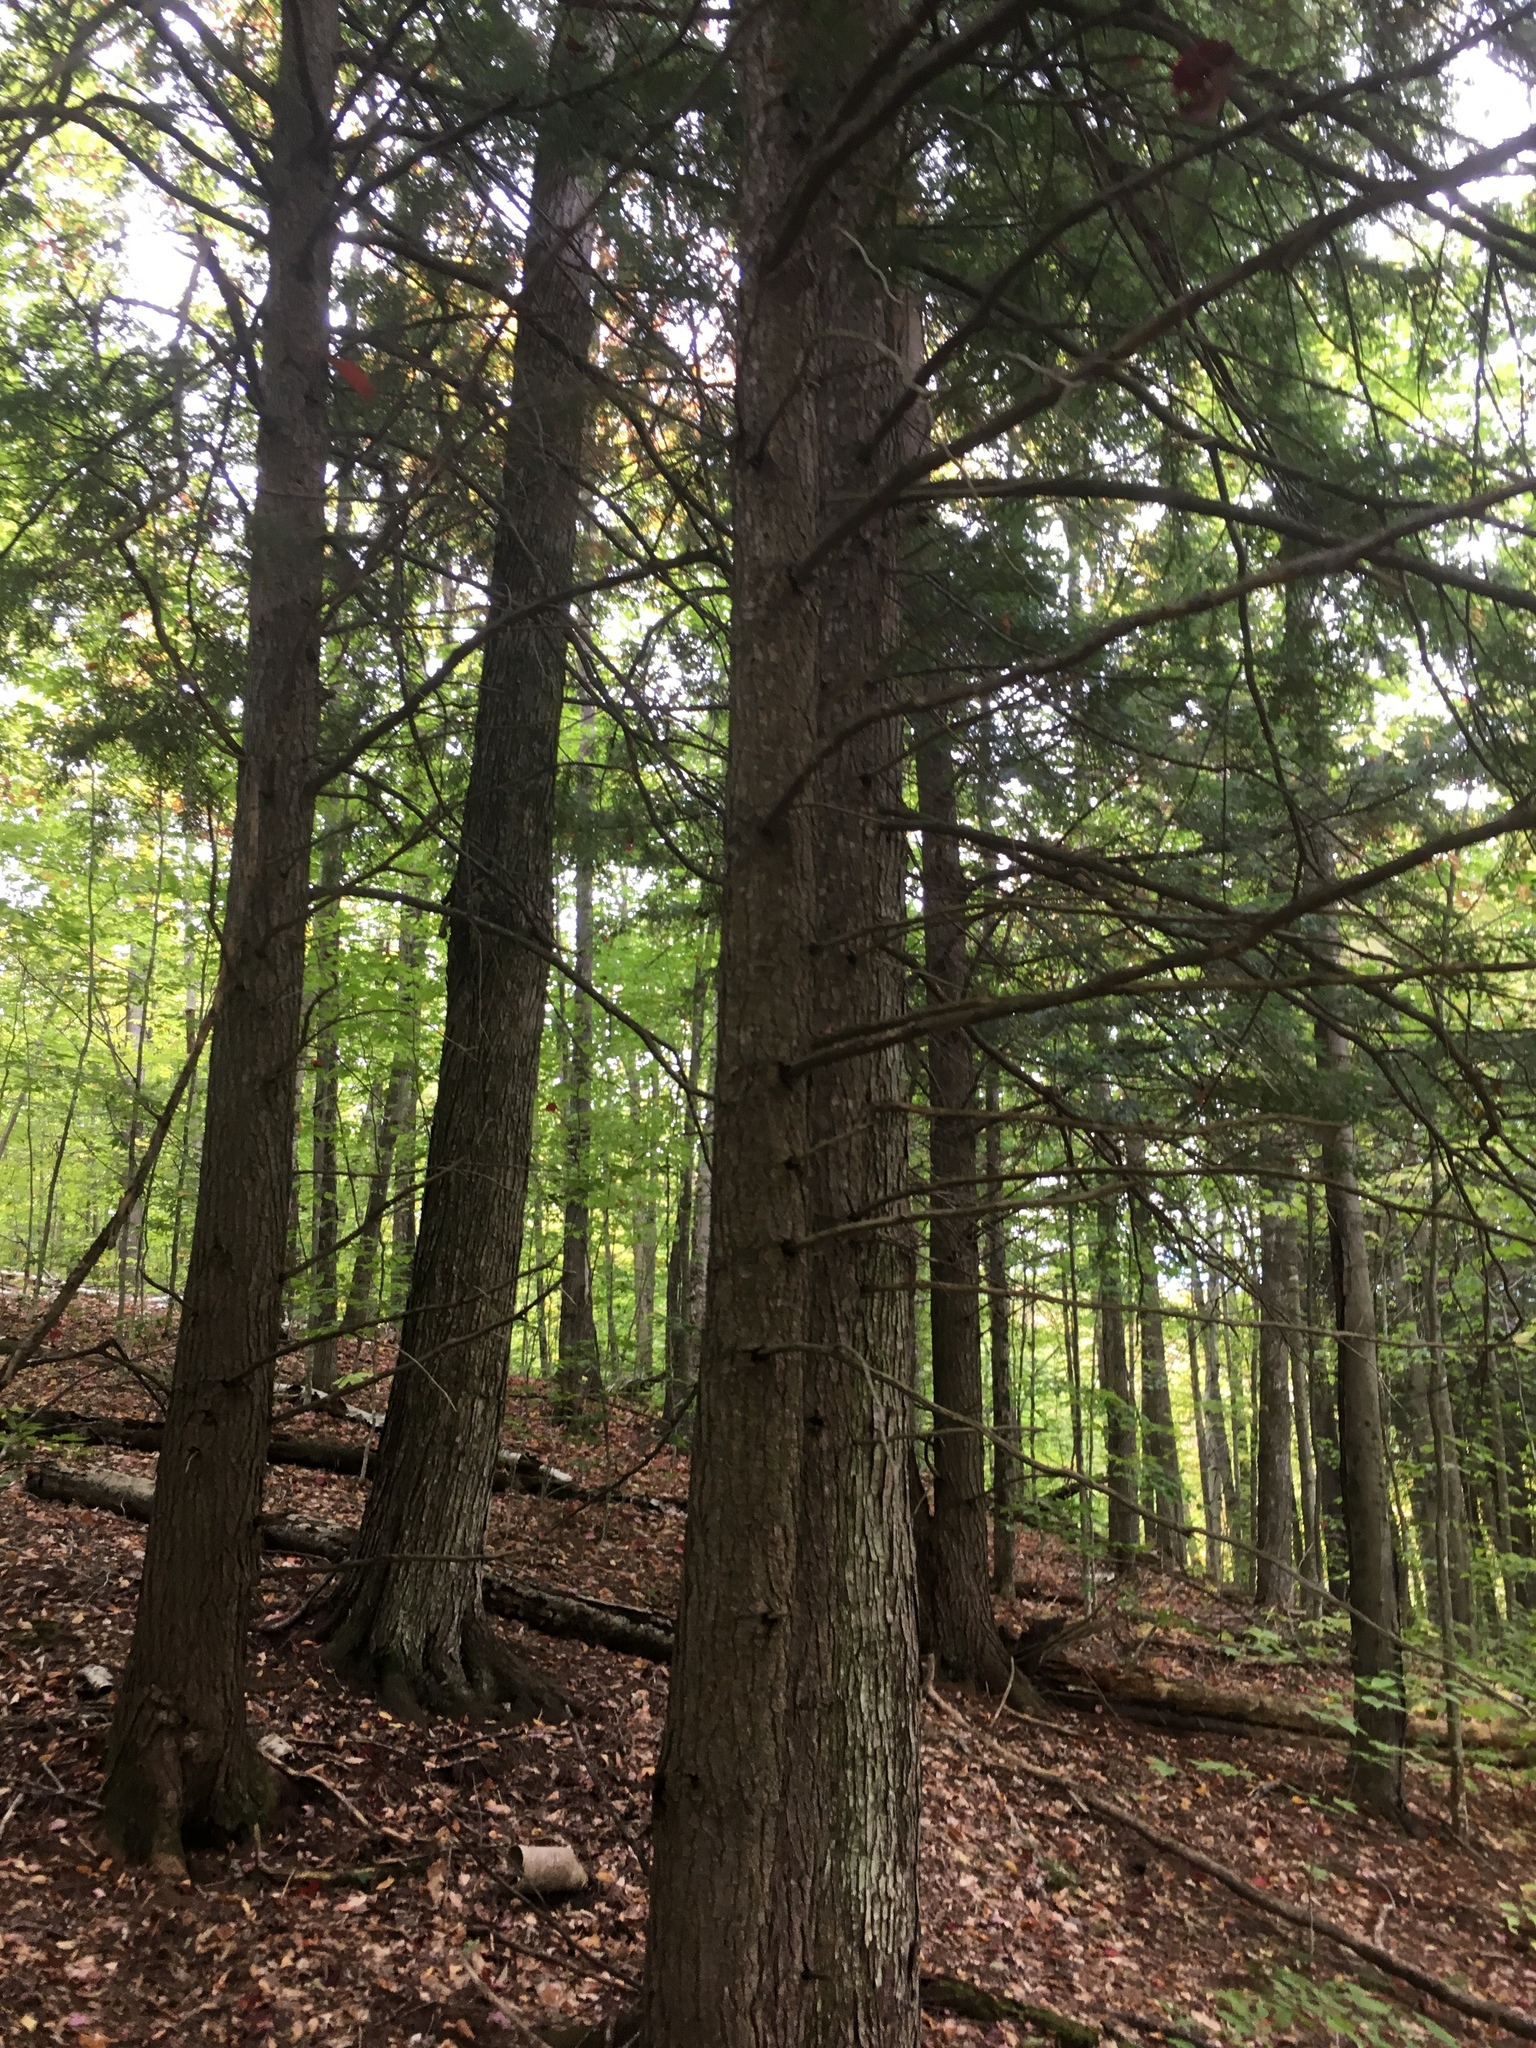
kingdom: Plantae
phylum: Tracheophyta
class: Pinopsida
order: Pinales
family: Pinaceae
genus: Tsuga
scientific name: Tsuga canadensis
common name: Eastern hemlock
